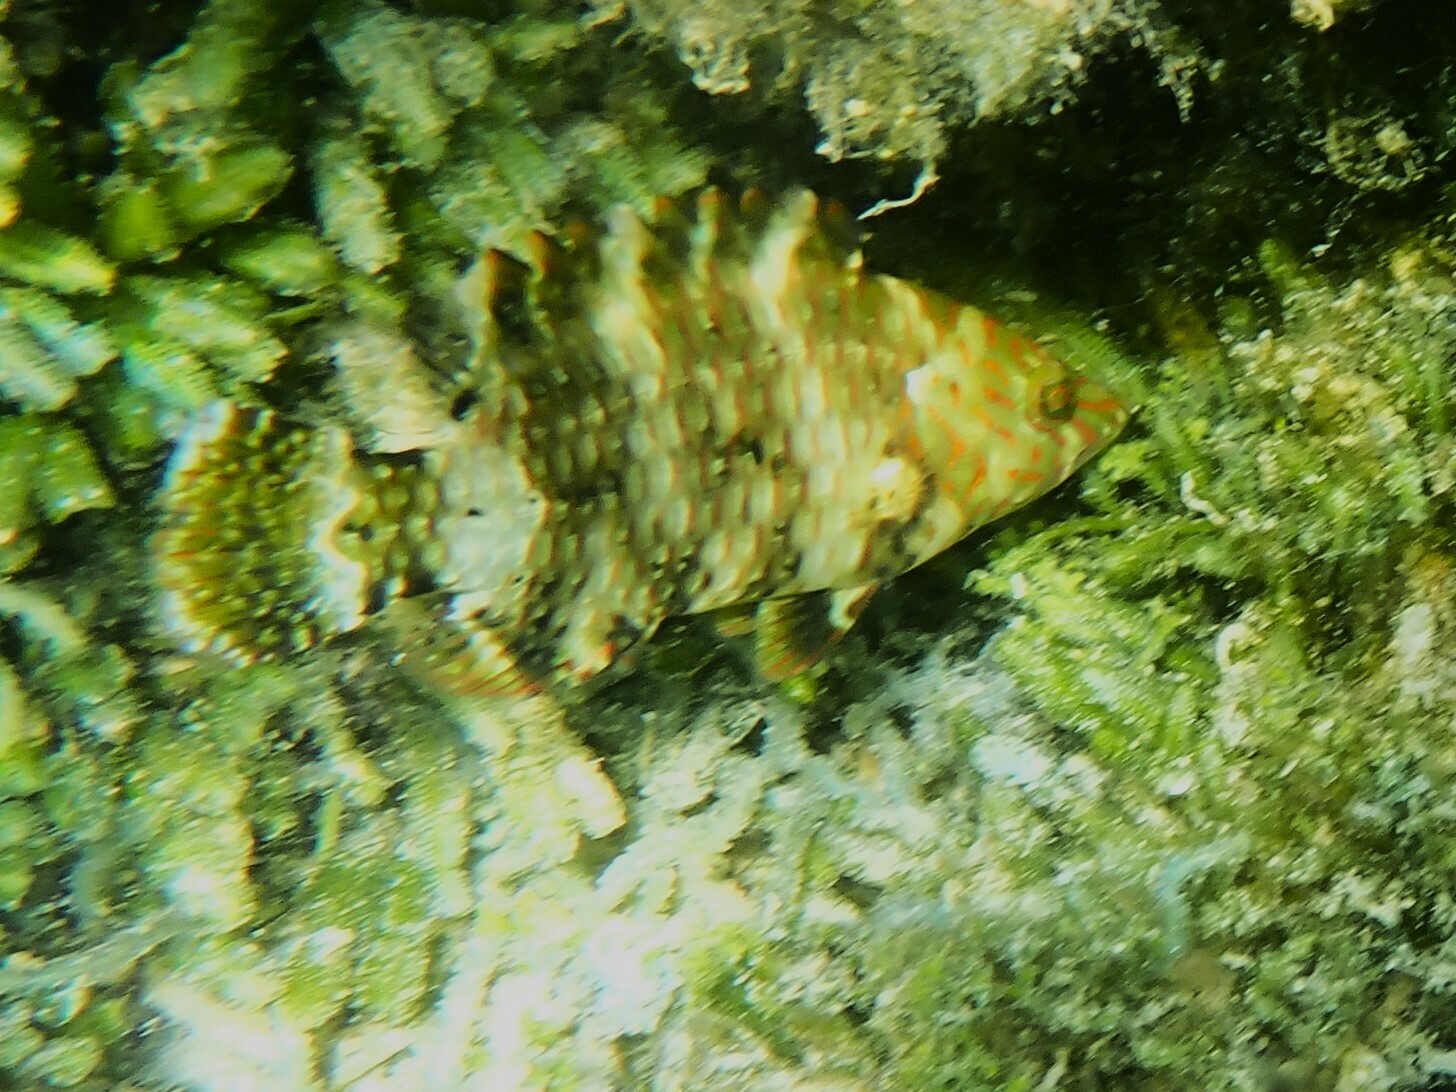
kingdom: Animalia
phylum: Chordata
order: Perciformes
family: Labridae
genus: Cheilinus
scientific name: Cheilinus trilobatus
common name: Tripletail maori wrasse
